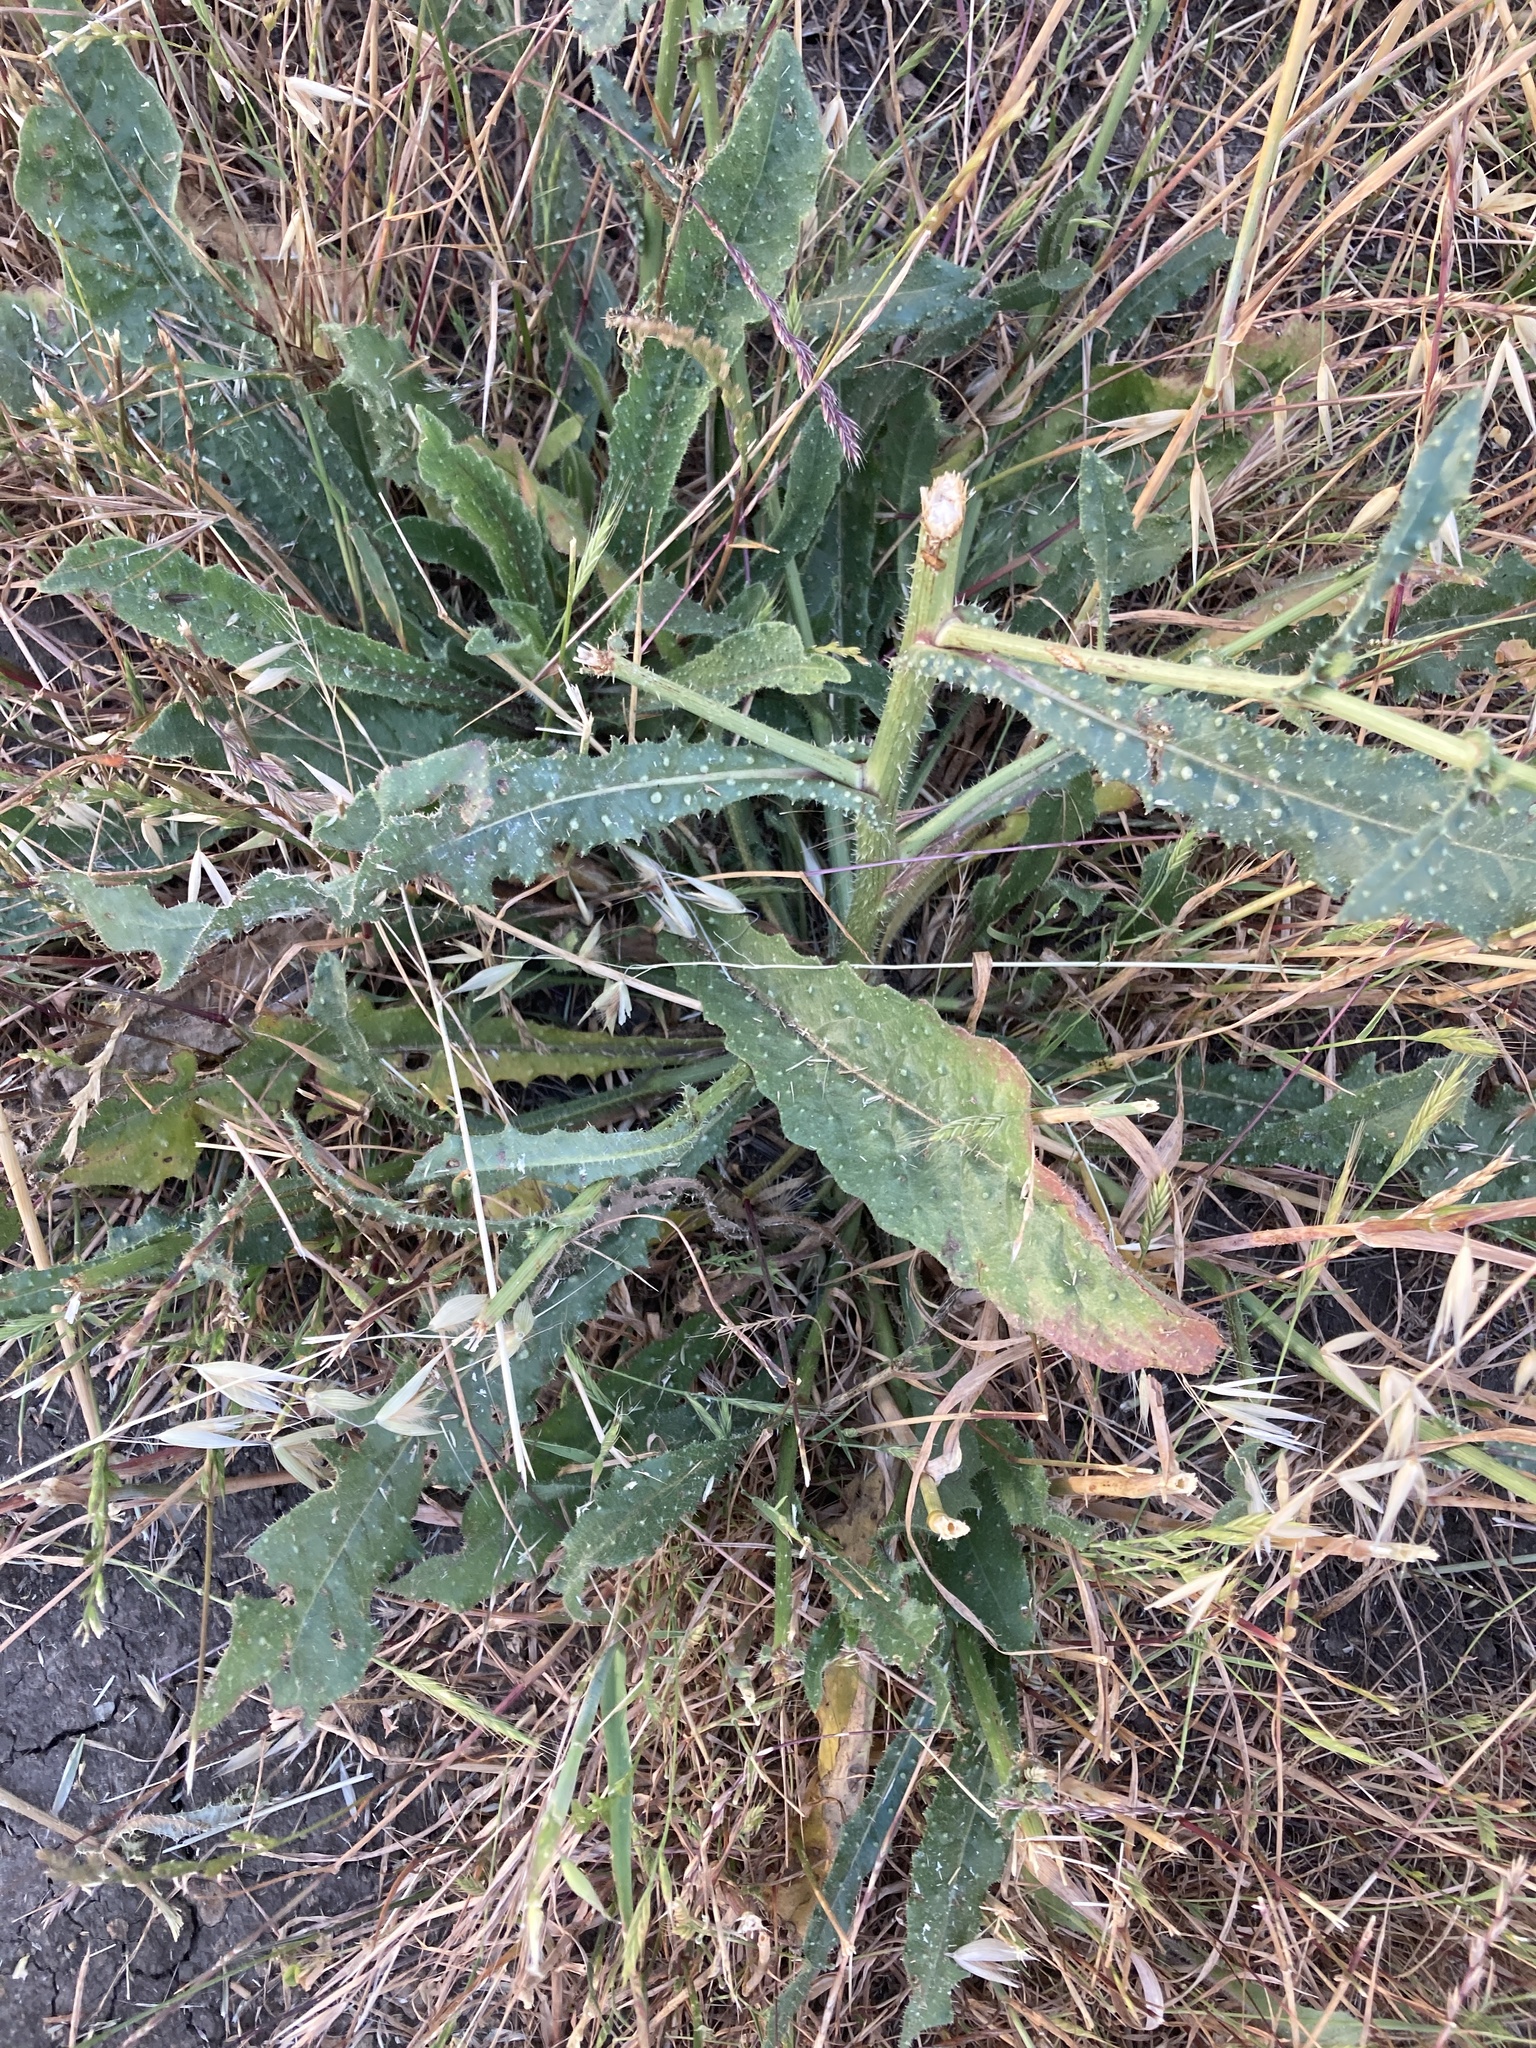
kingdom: Plantae
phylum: Tracheophyta
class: Magnoliopsida
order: Asterales
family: Asteraceae
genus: Helminthotheca
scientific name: Helminthotheca echioides
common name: Ox-tongue
